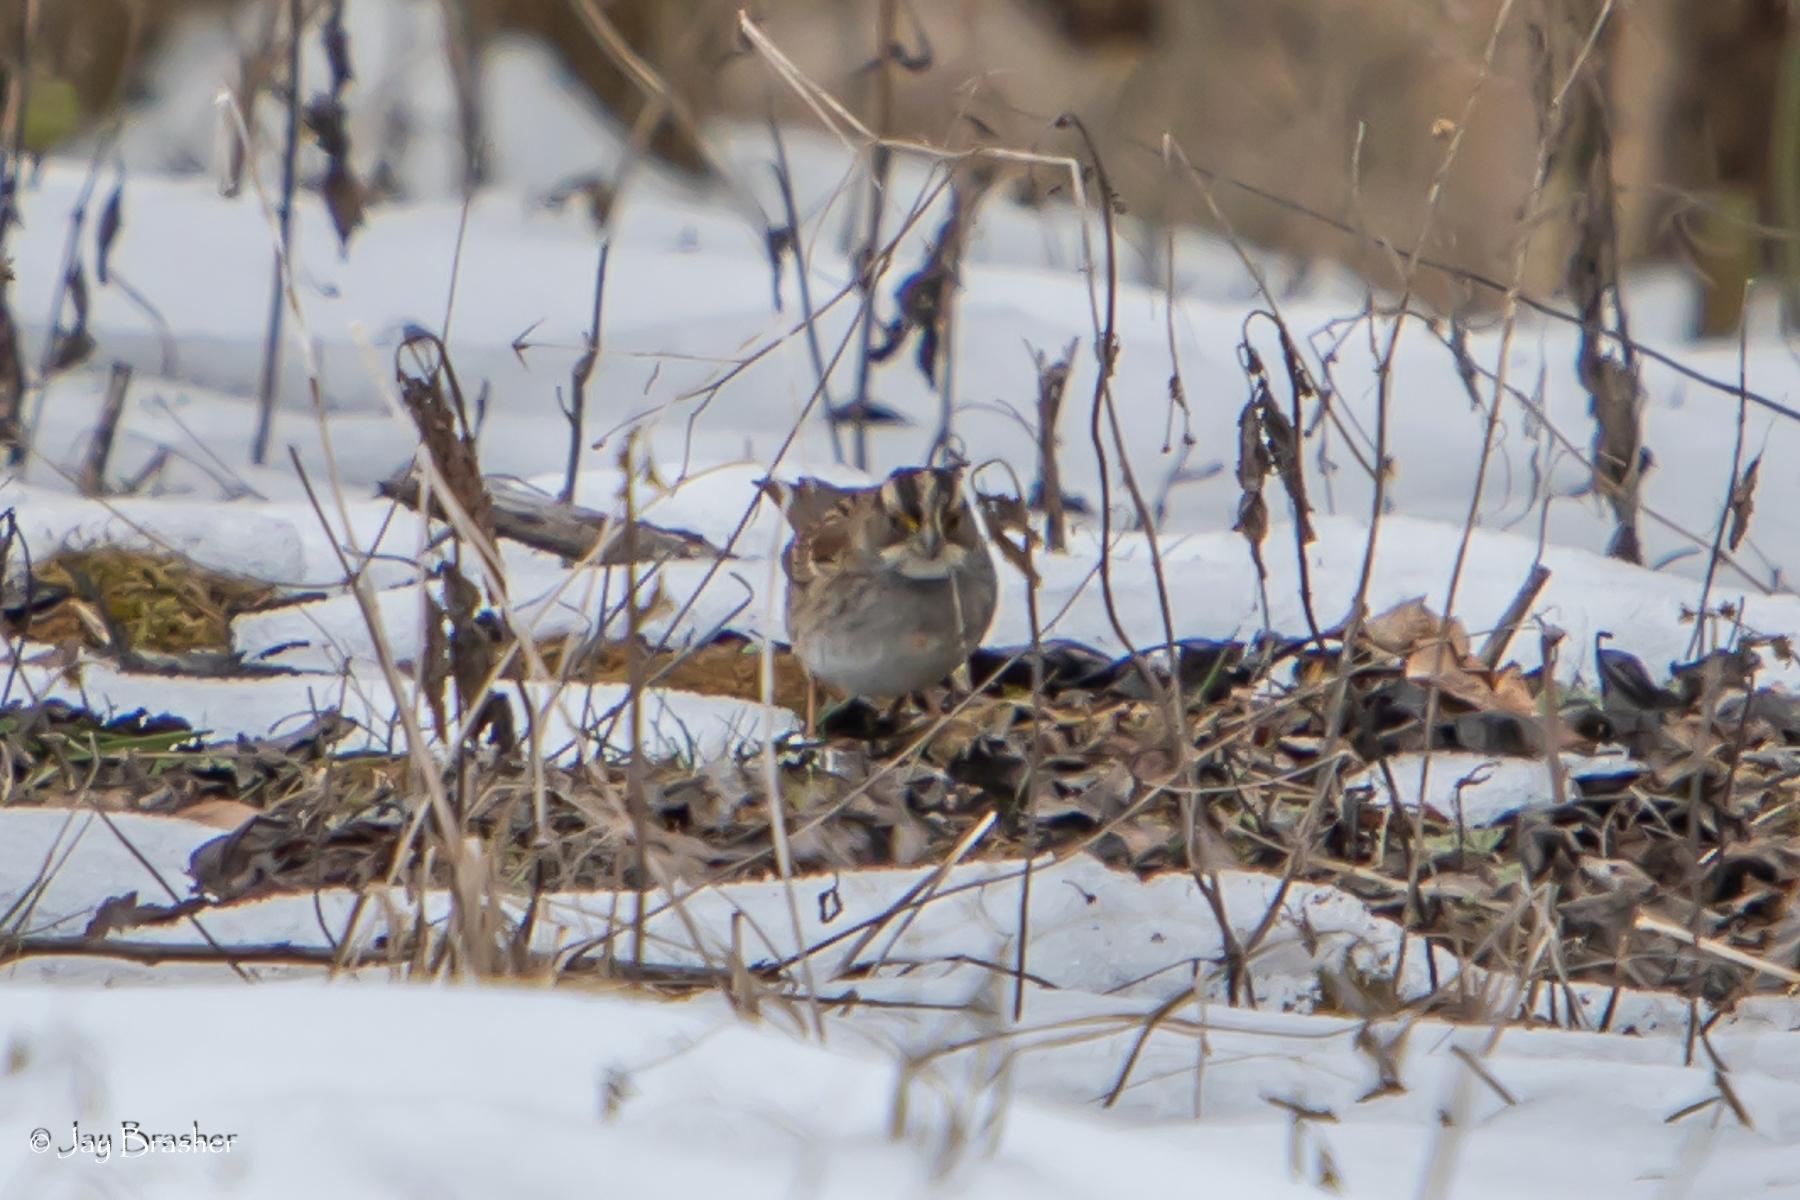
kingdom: Animalia
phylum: Chordata
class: Aves
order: Passeriformes
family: Passerellidae
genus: Zonotrichia
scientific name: Zonotrichia albicollis
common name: White-throated sparrow
